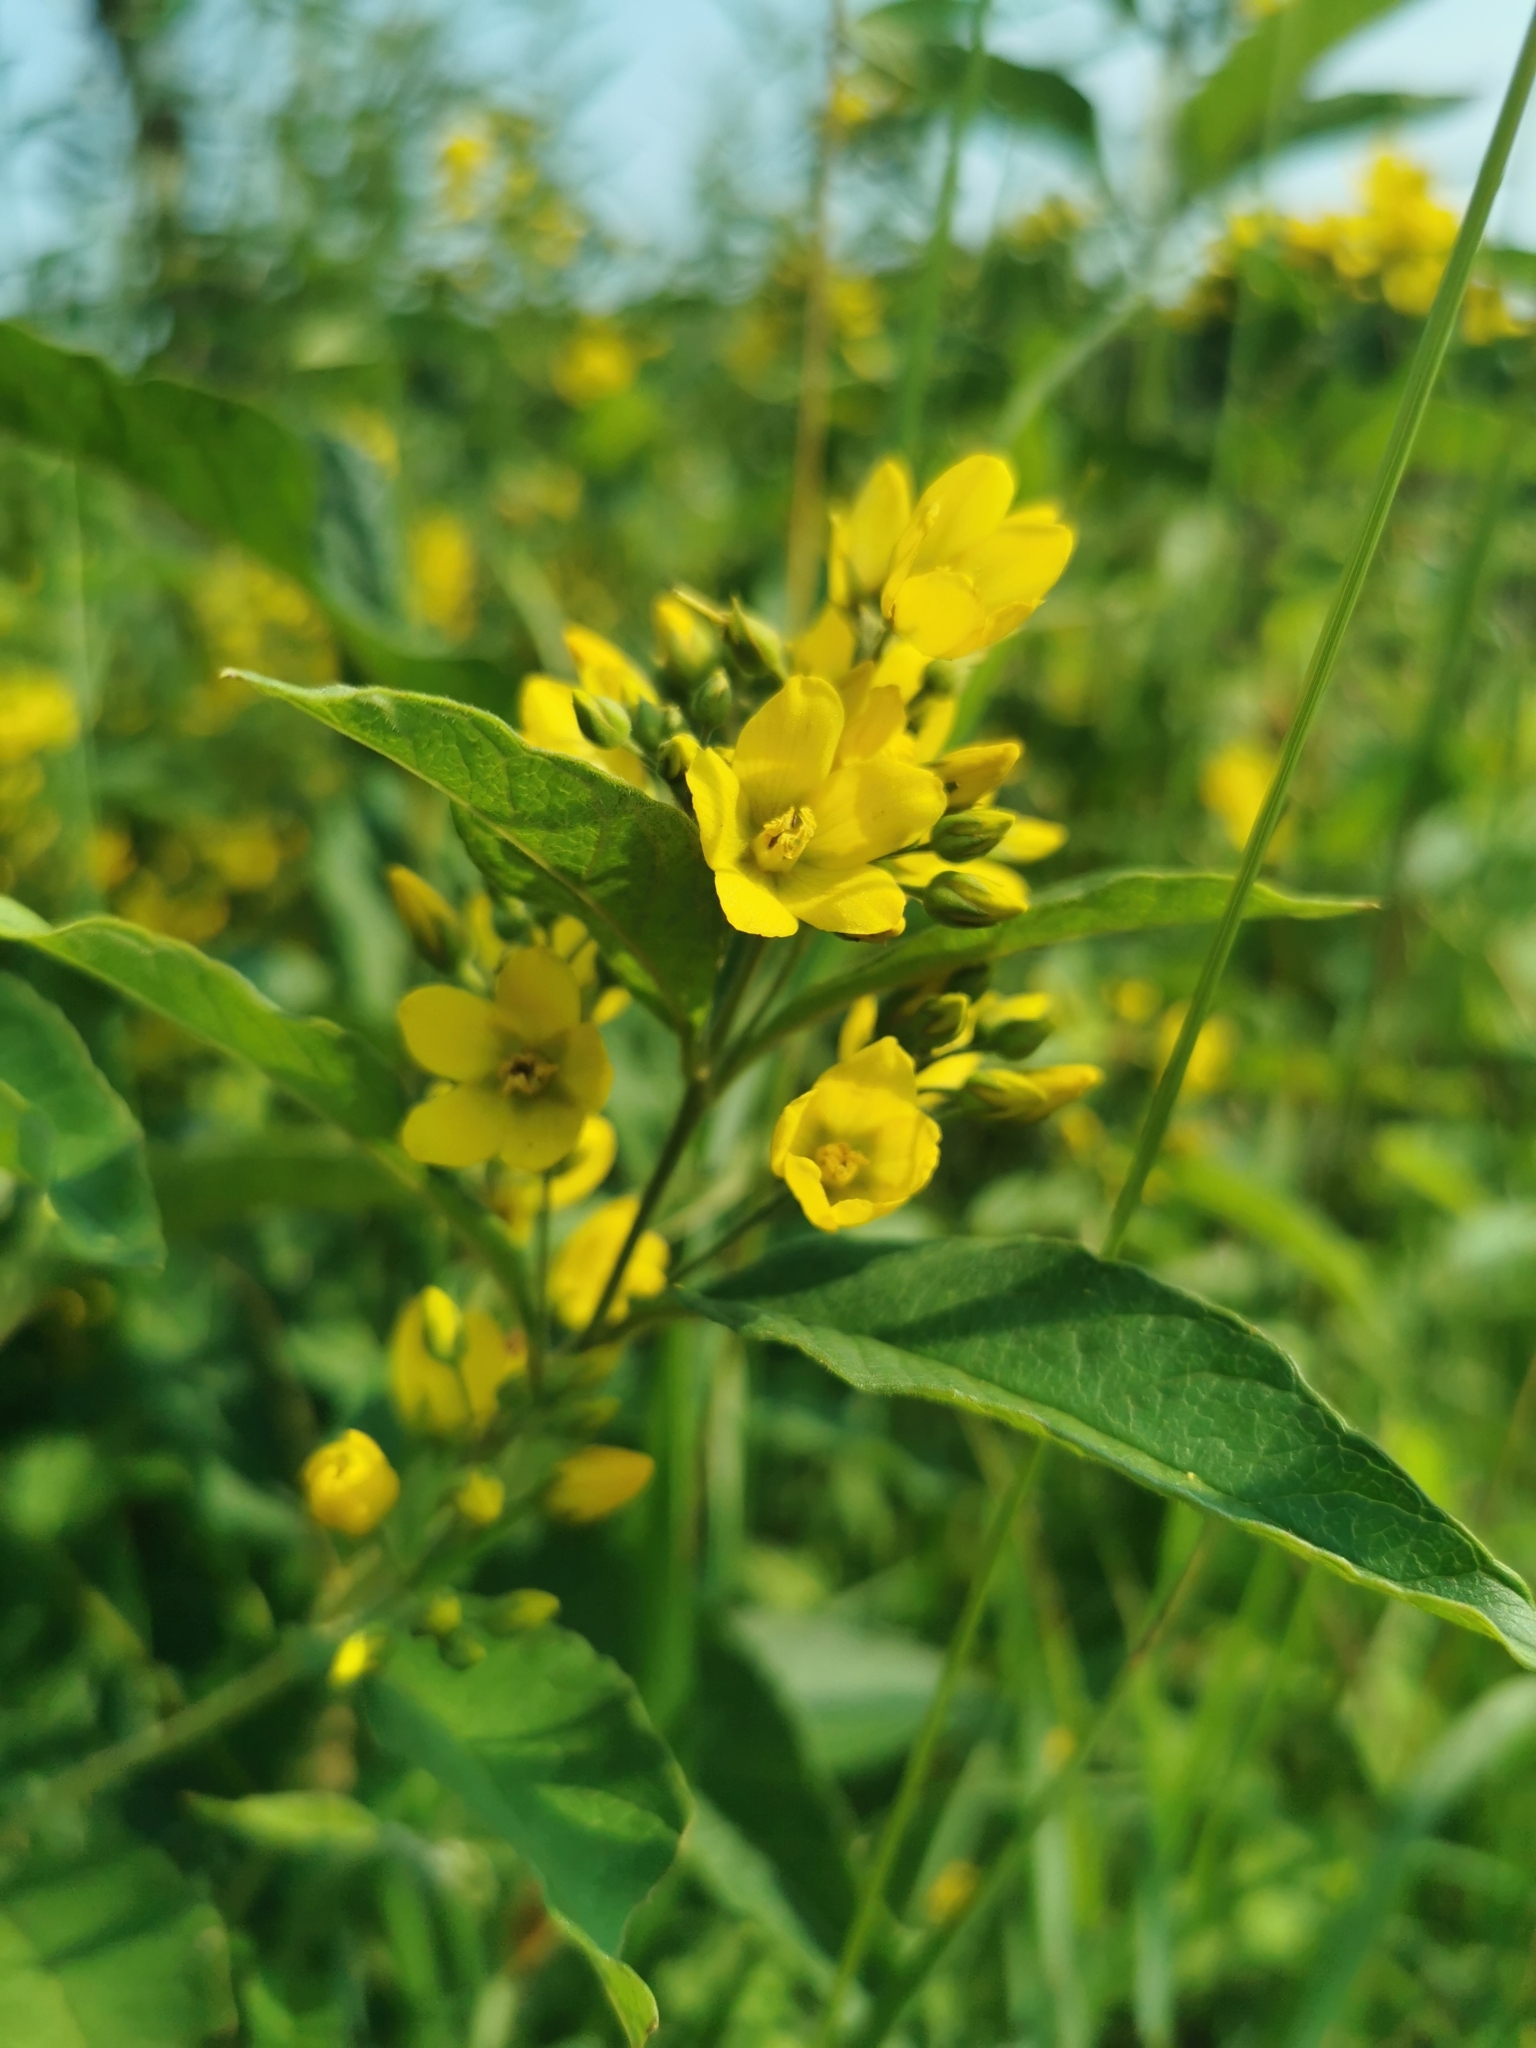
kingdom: Plantae
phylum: Tracheophyta
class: Magnoliopsida
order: Ericales
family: Primulaceae
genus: Lysimachia
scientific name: Lysimachia vulgaris
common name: Yellow loosestrife
